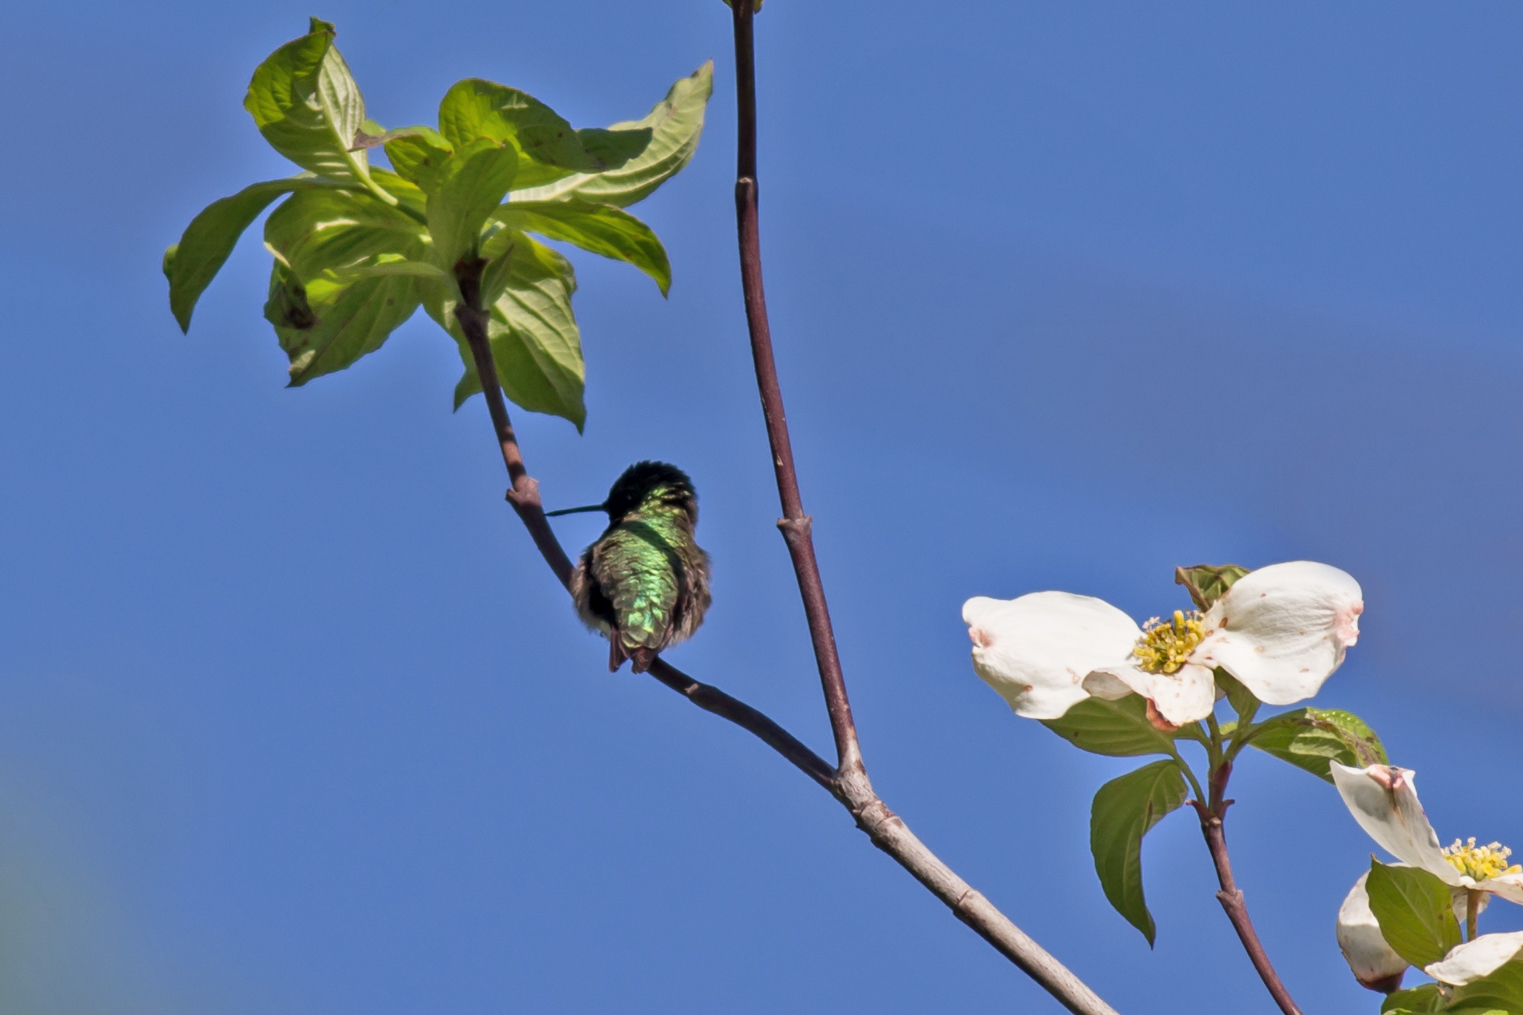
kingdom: Animalia
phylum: Chordata
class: Aves
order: Apodiformes
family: Trochilidae
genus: Archilochus
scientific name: Archilochus colubris
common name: Ruby-throated hummingbird
